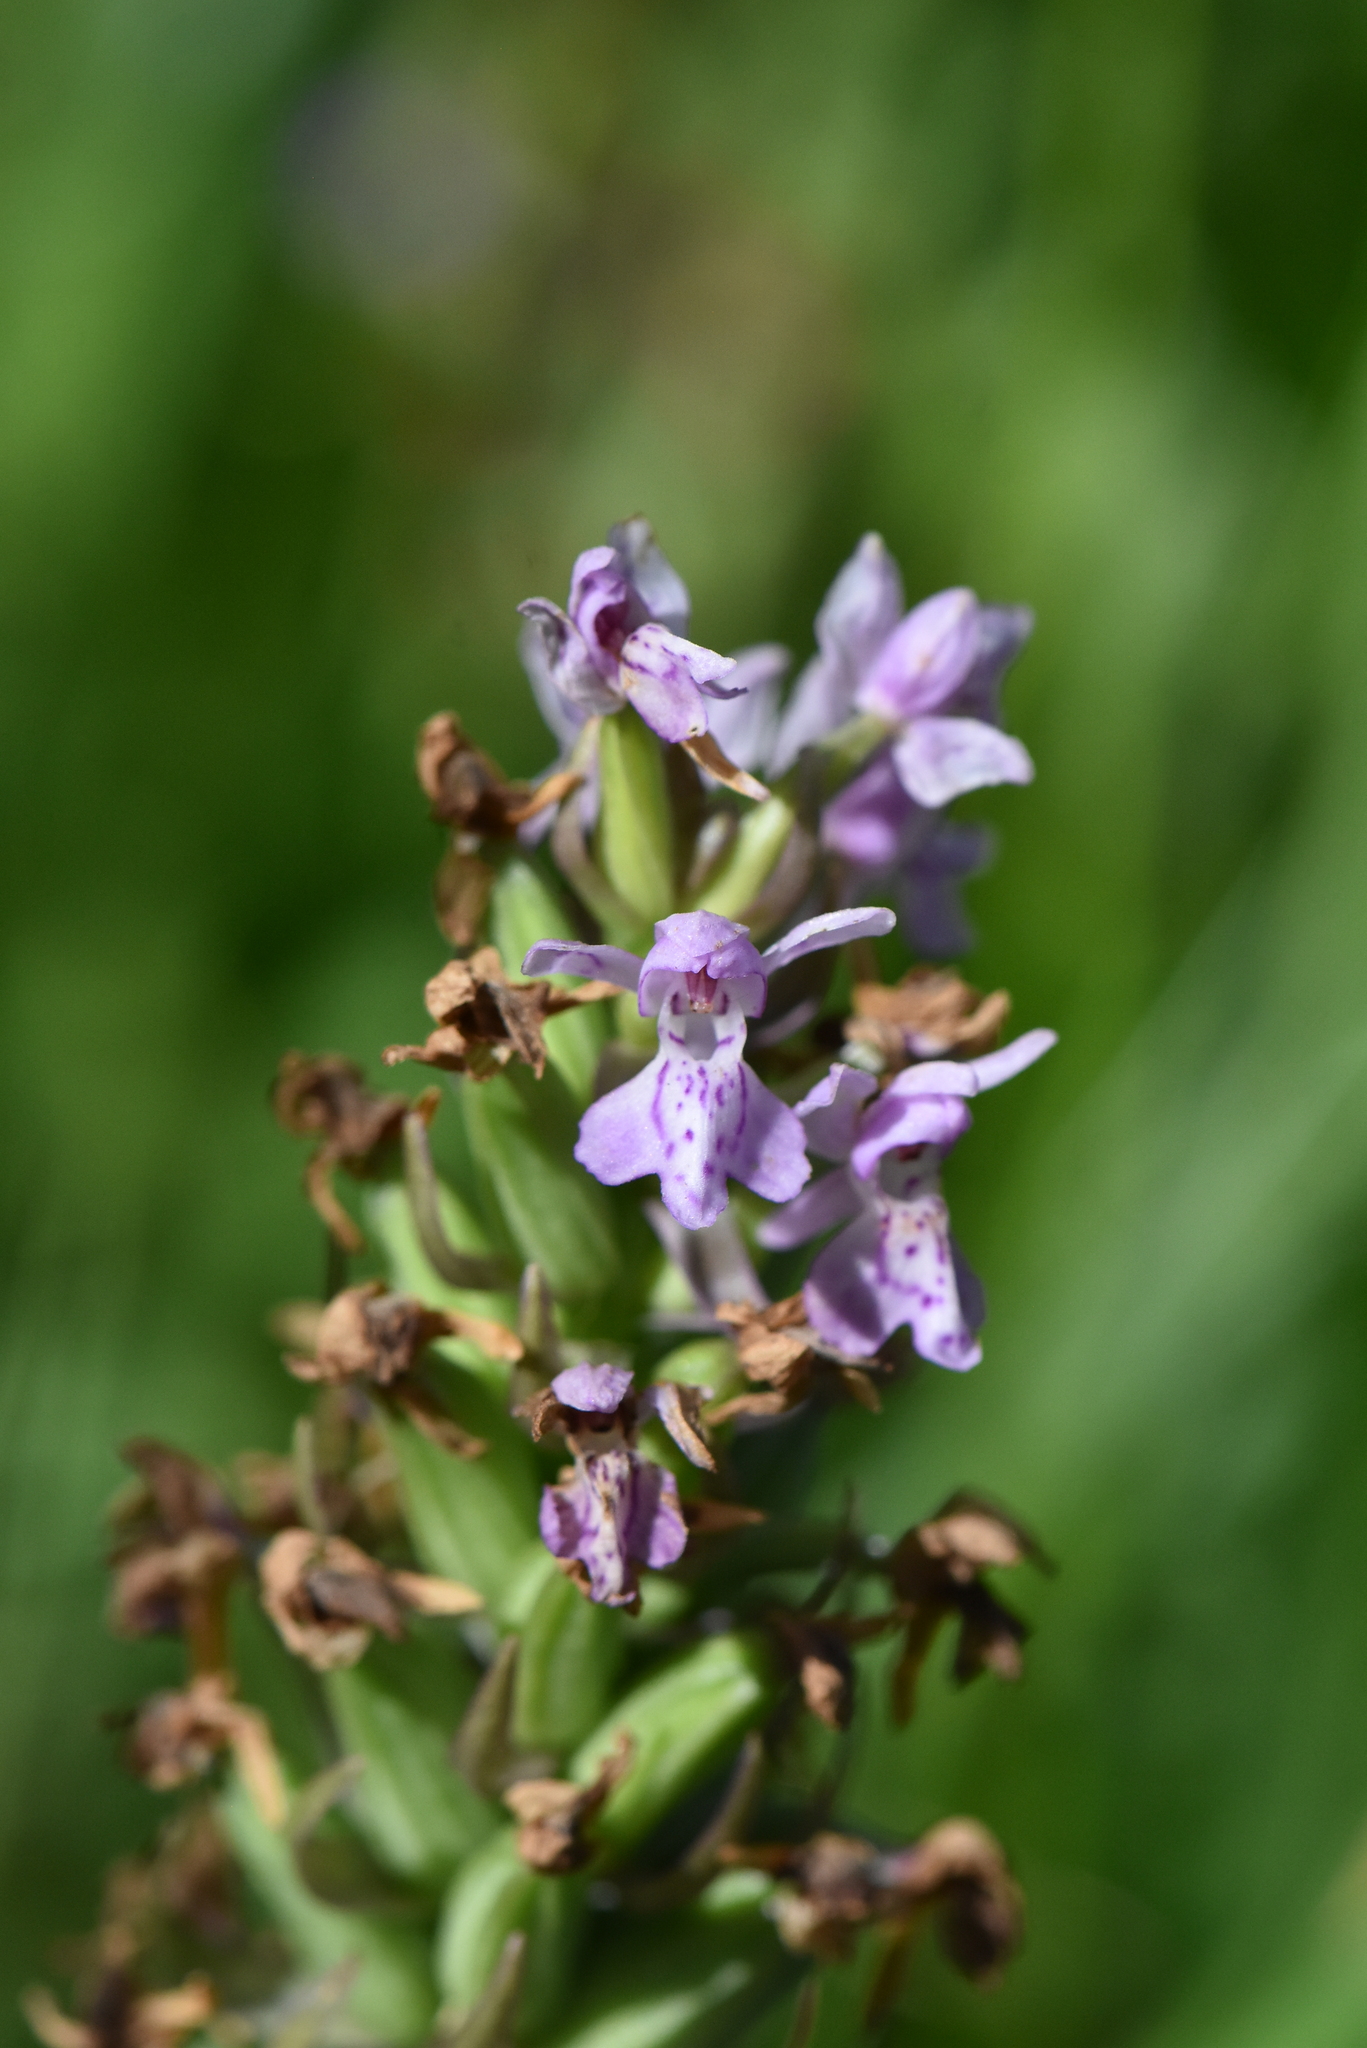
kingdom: Plantae
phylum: Tracheophyta
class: Liliopsida
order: Asparagales
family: Orchidaceae
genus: Dactylorhiza
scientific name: Dactylorhiza majalis
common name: Marsh orchid
